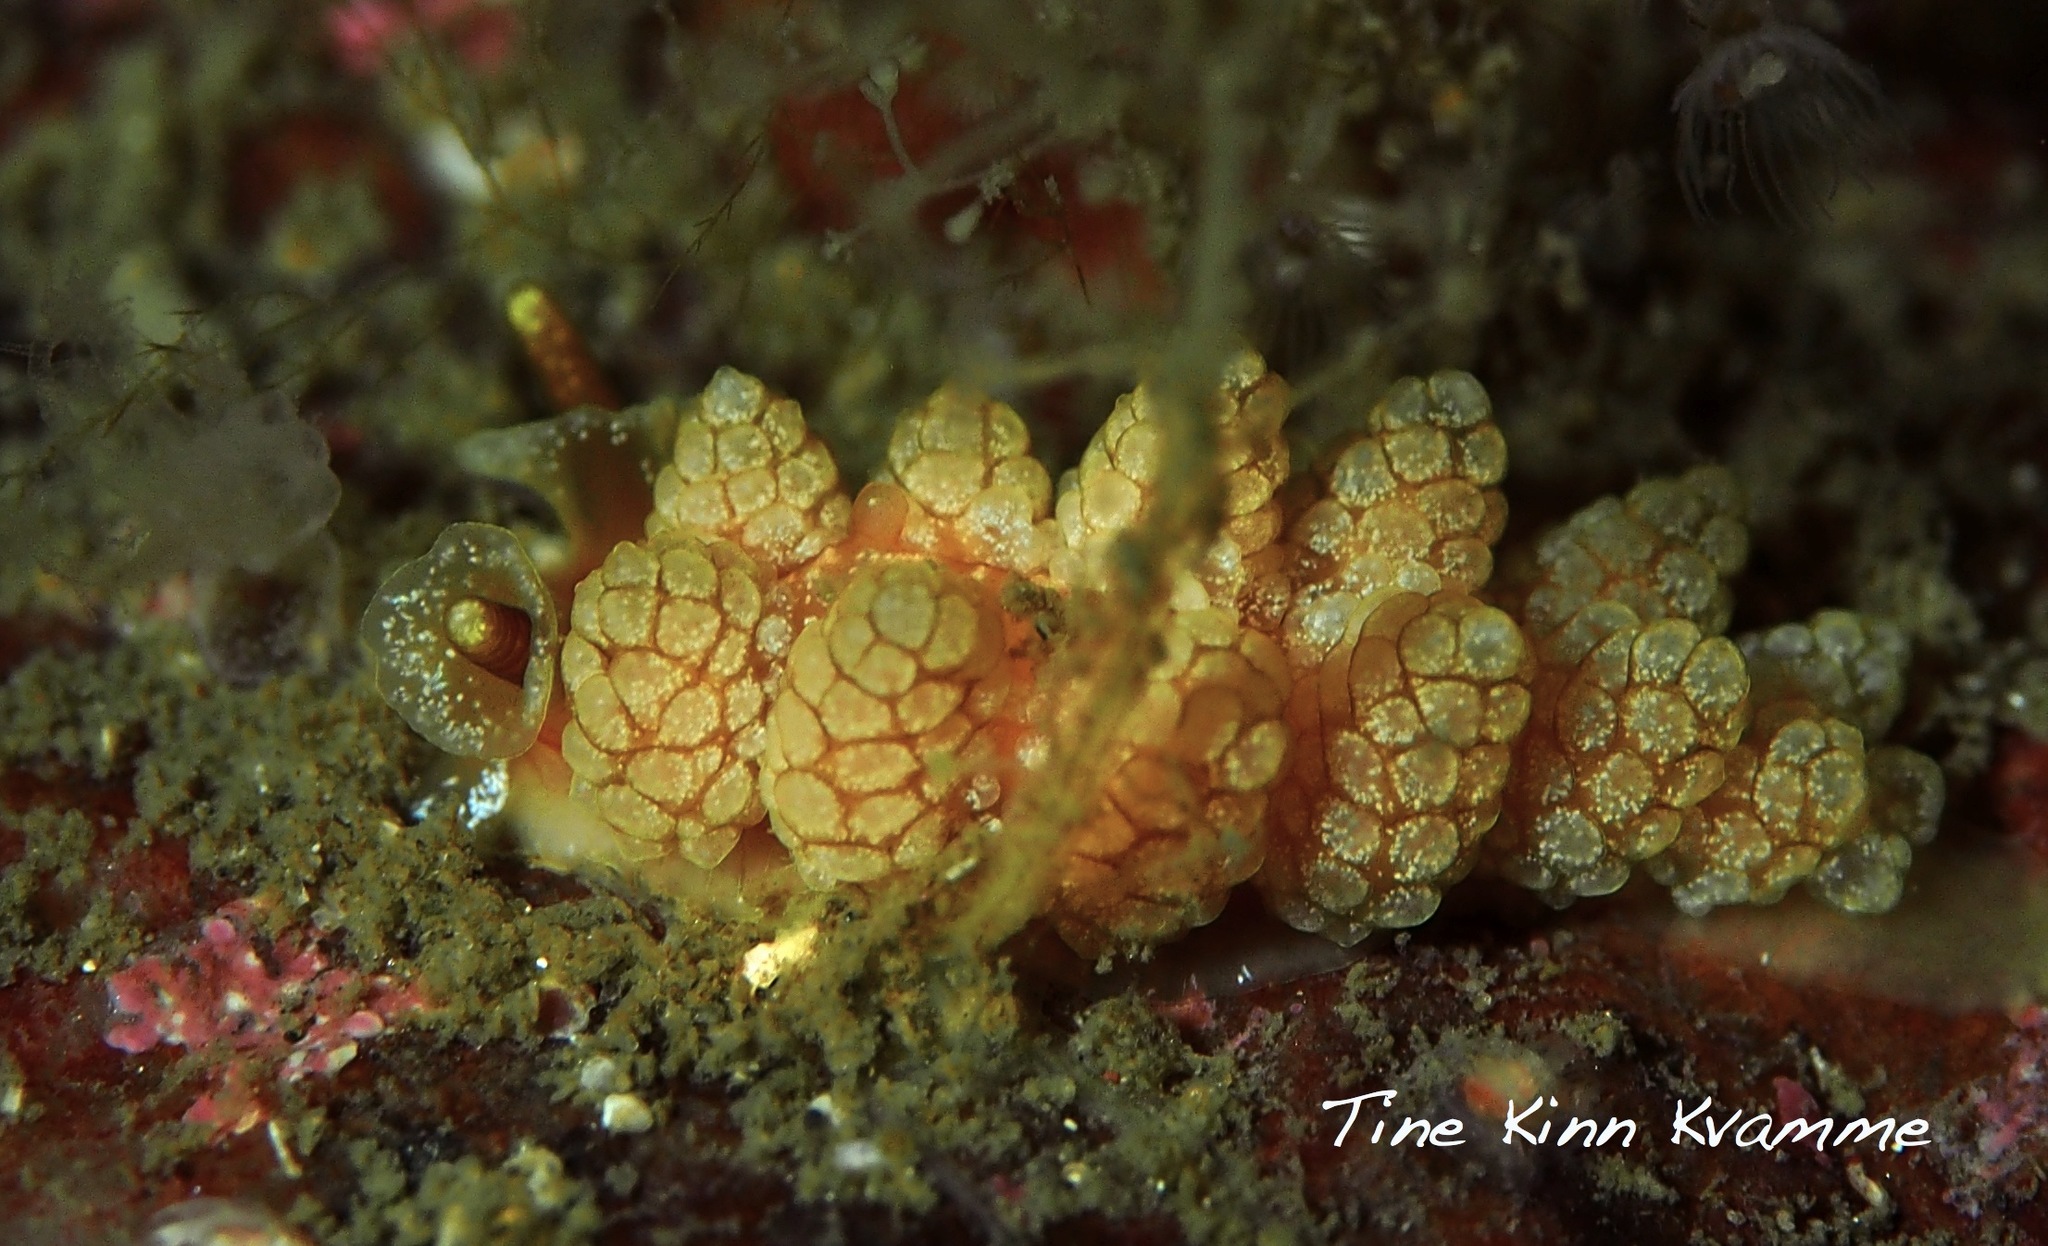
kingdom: Animalia
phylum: Mollusca
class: Gastropoda
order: Nudibranchia
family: Dotidae
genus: Doto
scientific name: Doto fragilis
